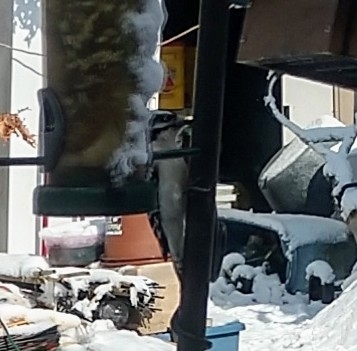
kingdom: Animalia
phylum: Chordata
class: Aves
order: Piciformes
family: Picidae
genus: Dryobates
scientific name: Dryobates pubescens
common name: Downy woodpecker
